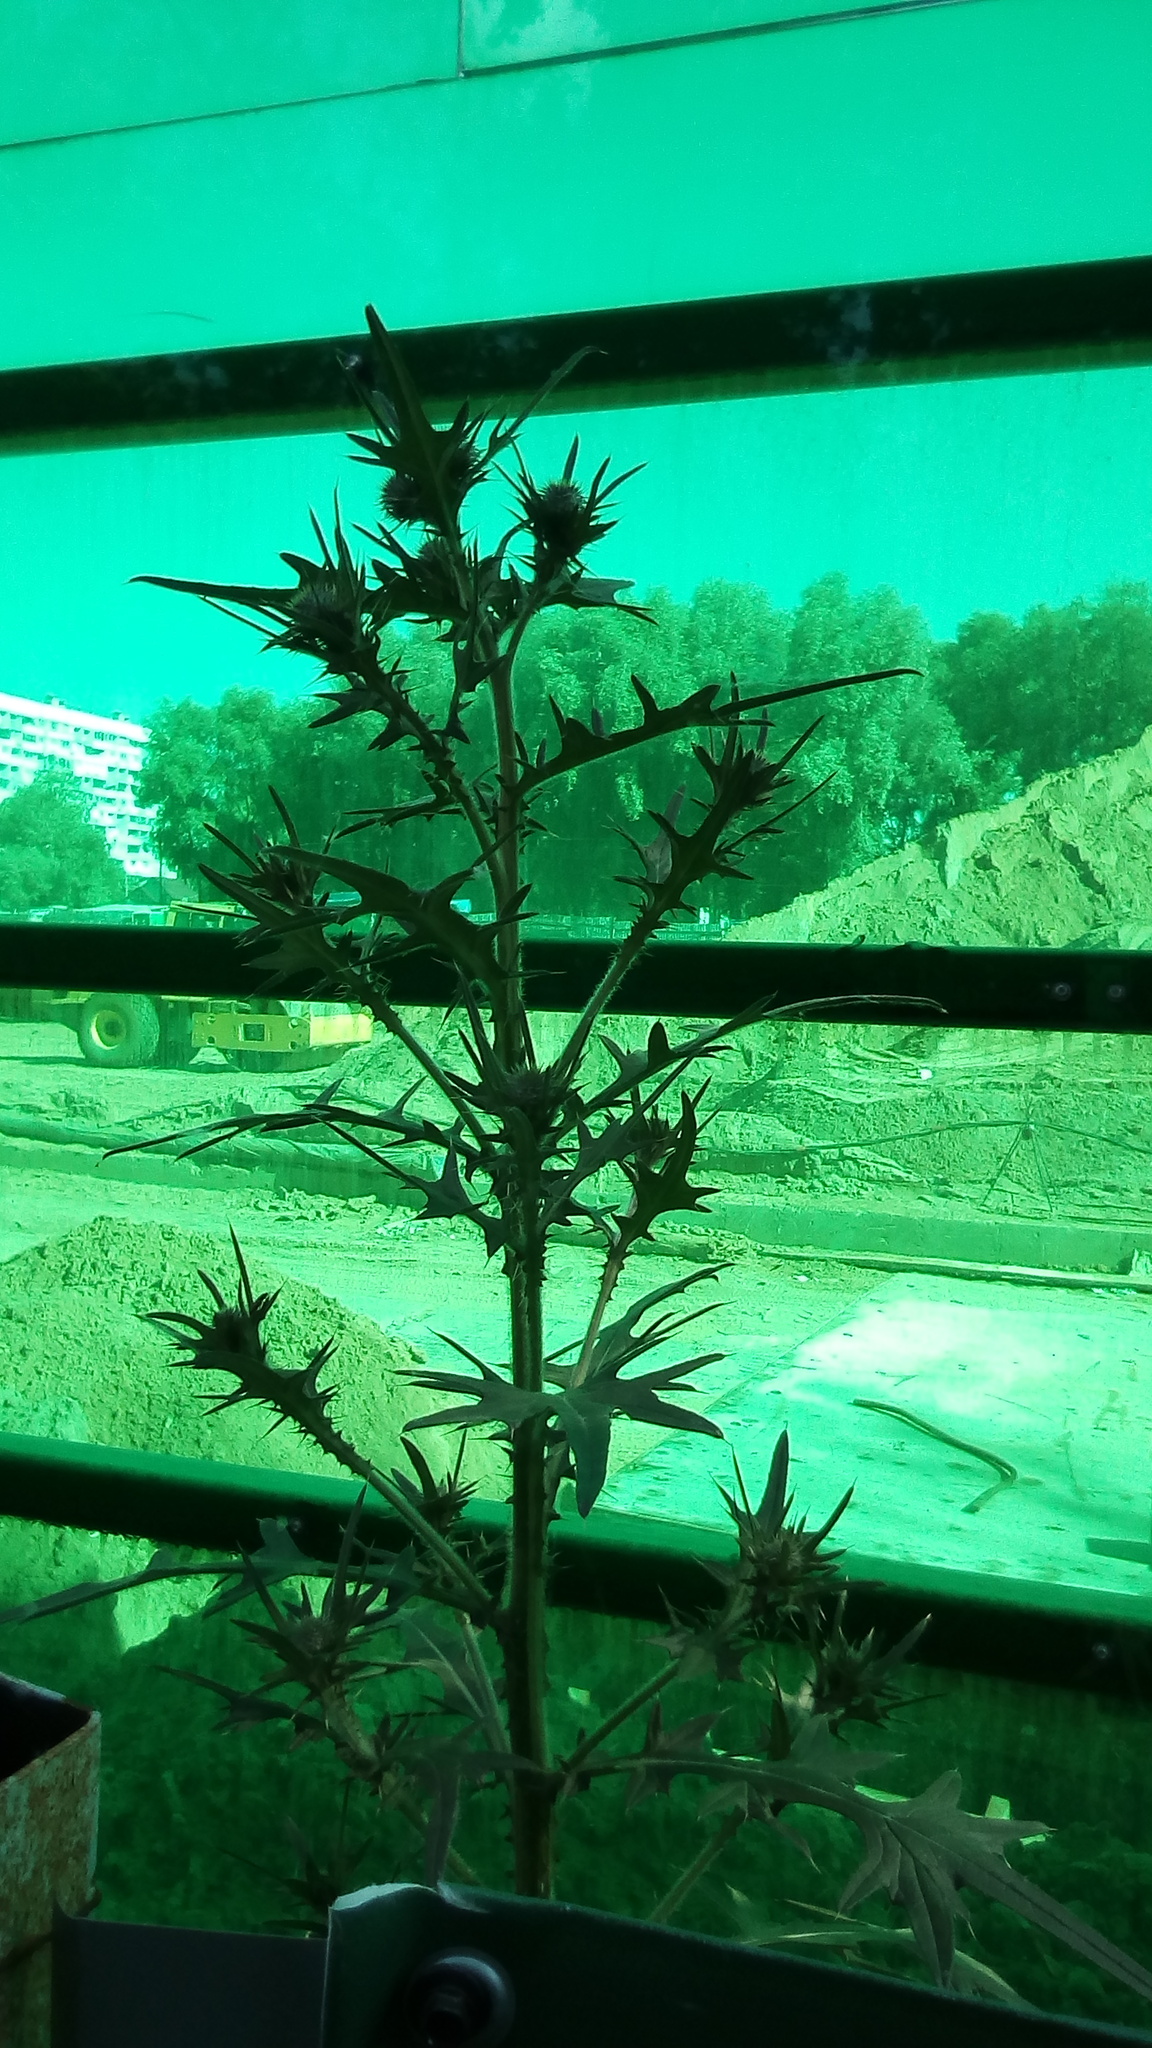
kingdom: Plantae
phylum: Tracheophyta
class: Magnoliopsida
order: Asterales
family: Asteraceae
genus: Cirsium
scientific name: Cirsium vulgare
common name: Bull thistle
